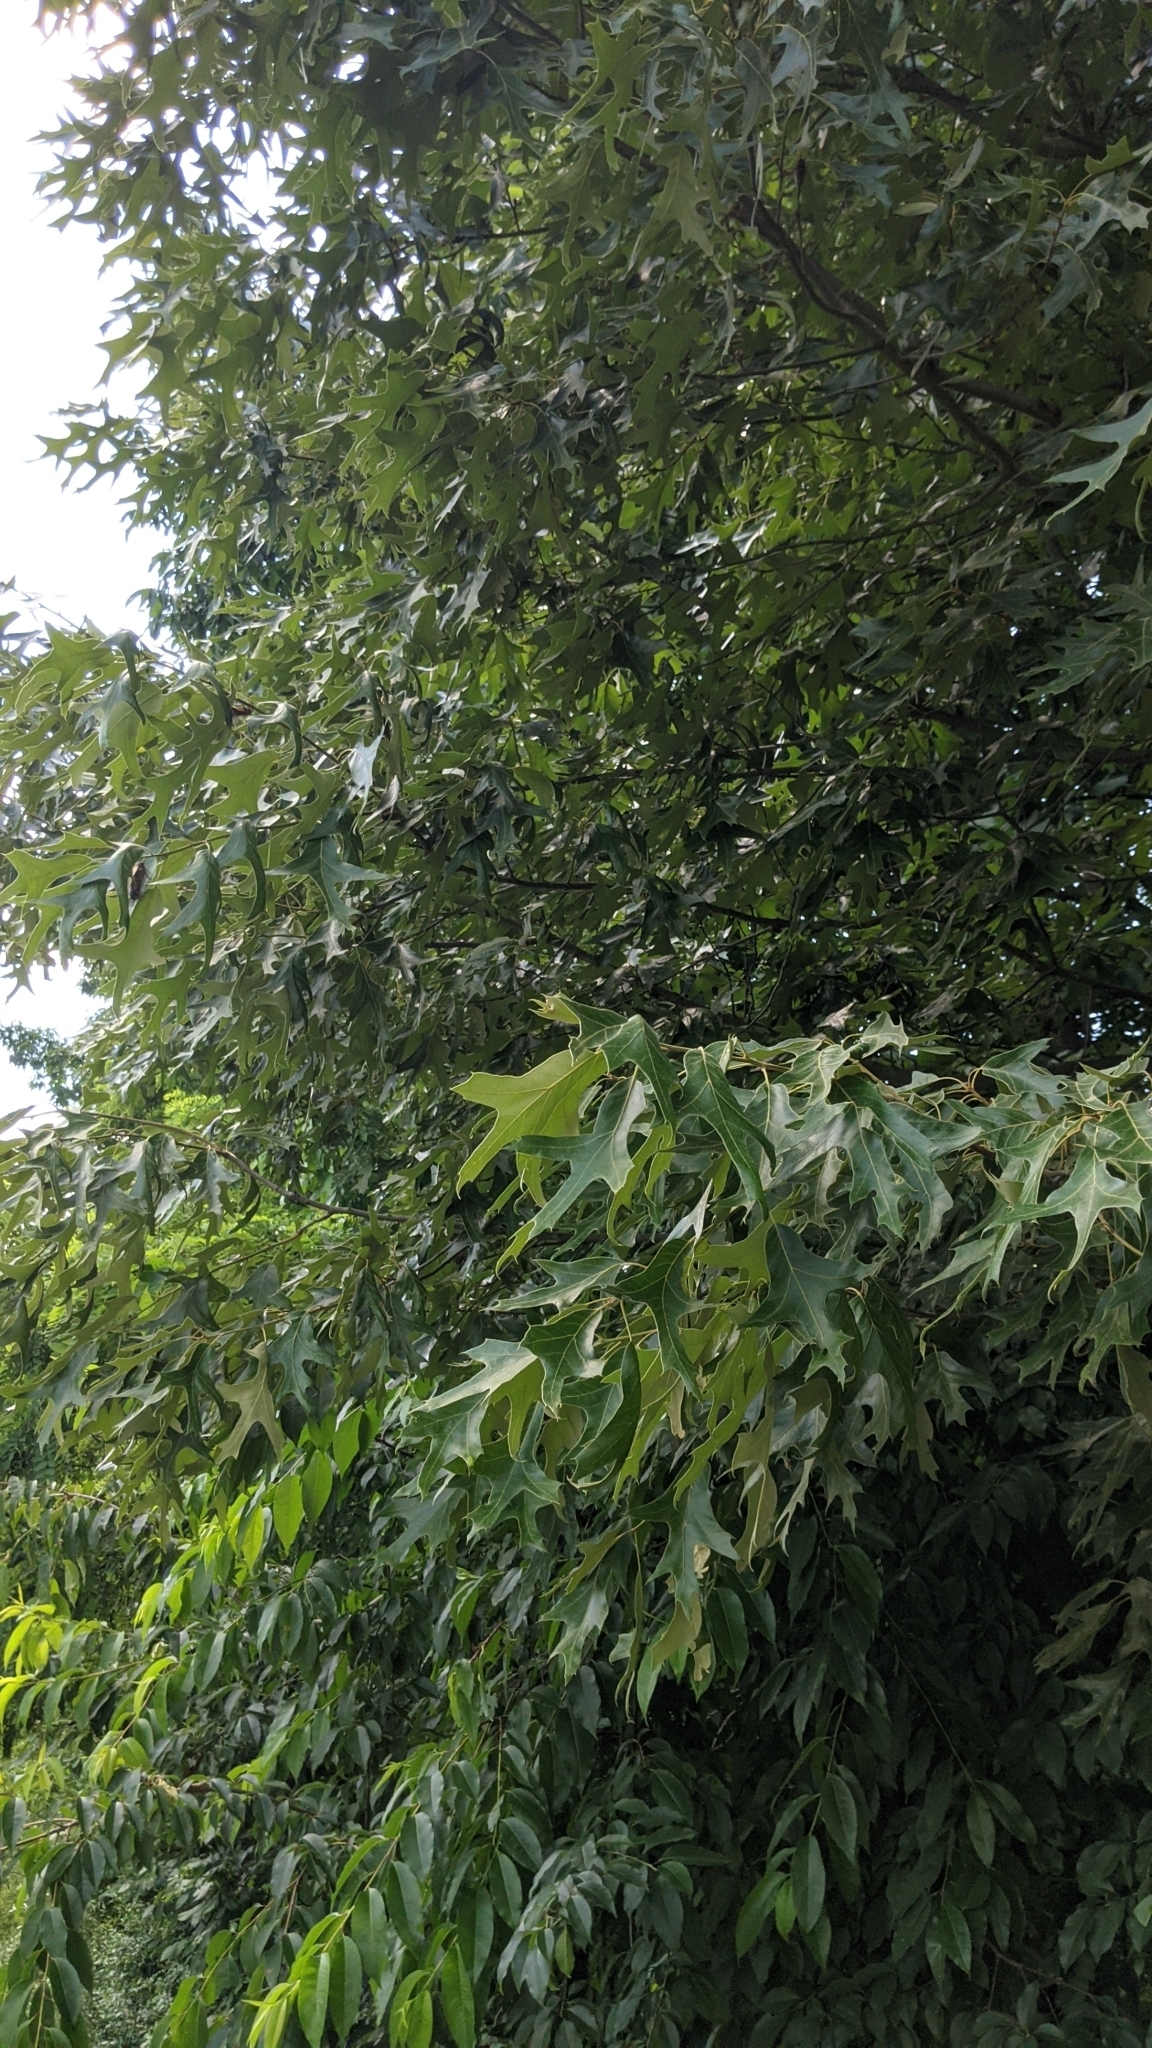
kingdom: Plantae
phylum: Tracheophyta
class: Magnoliopsida
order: Fagales
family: Fagaceae
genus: Quercus
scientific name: Quercus falcata
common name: Southern red oak
